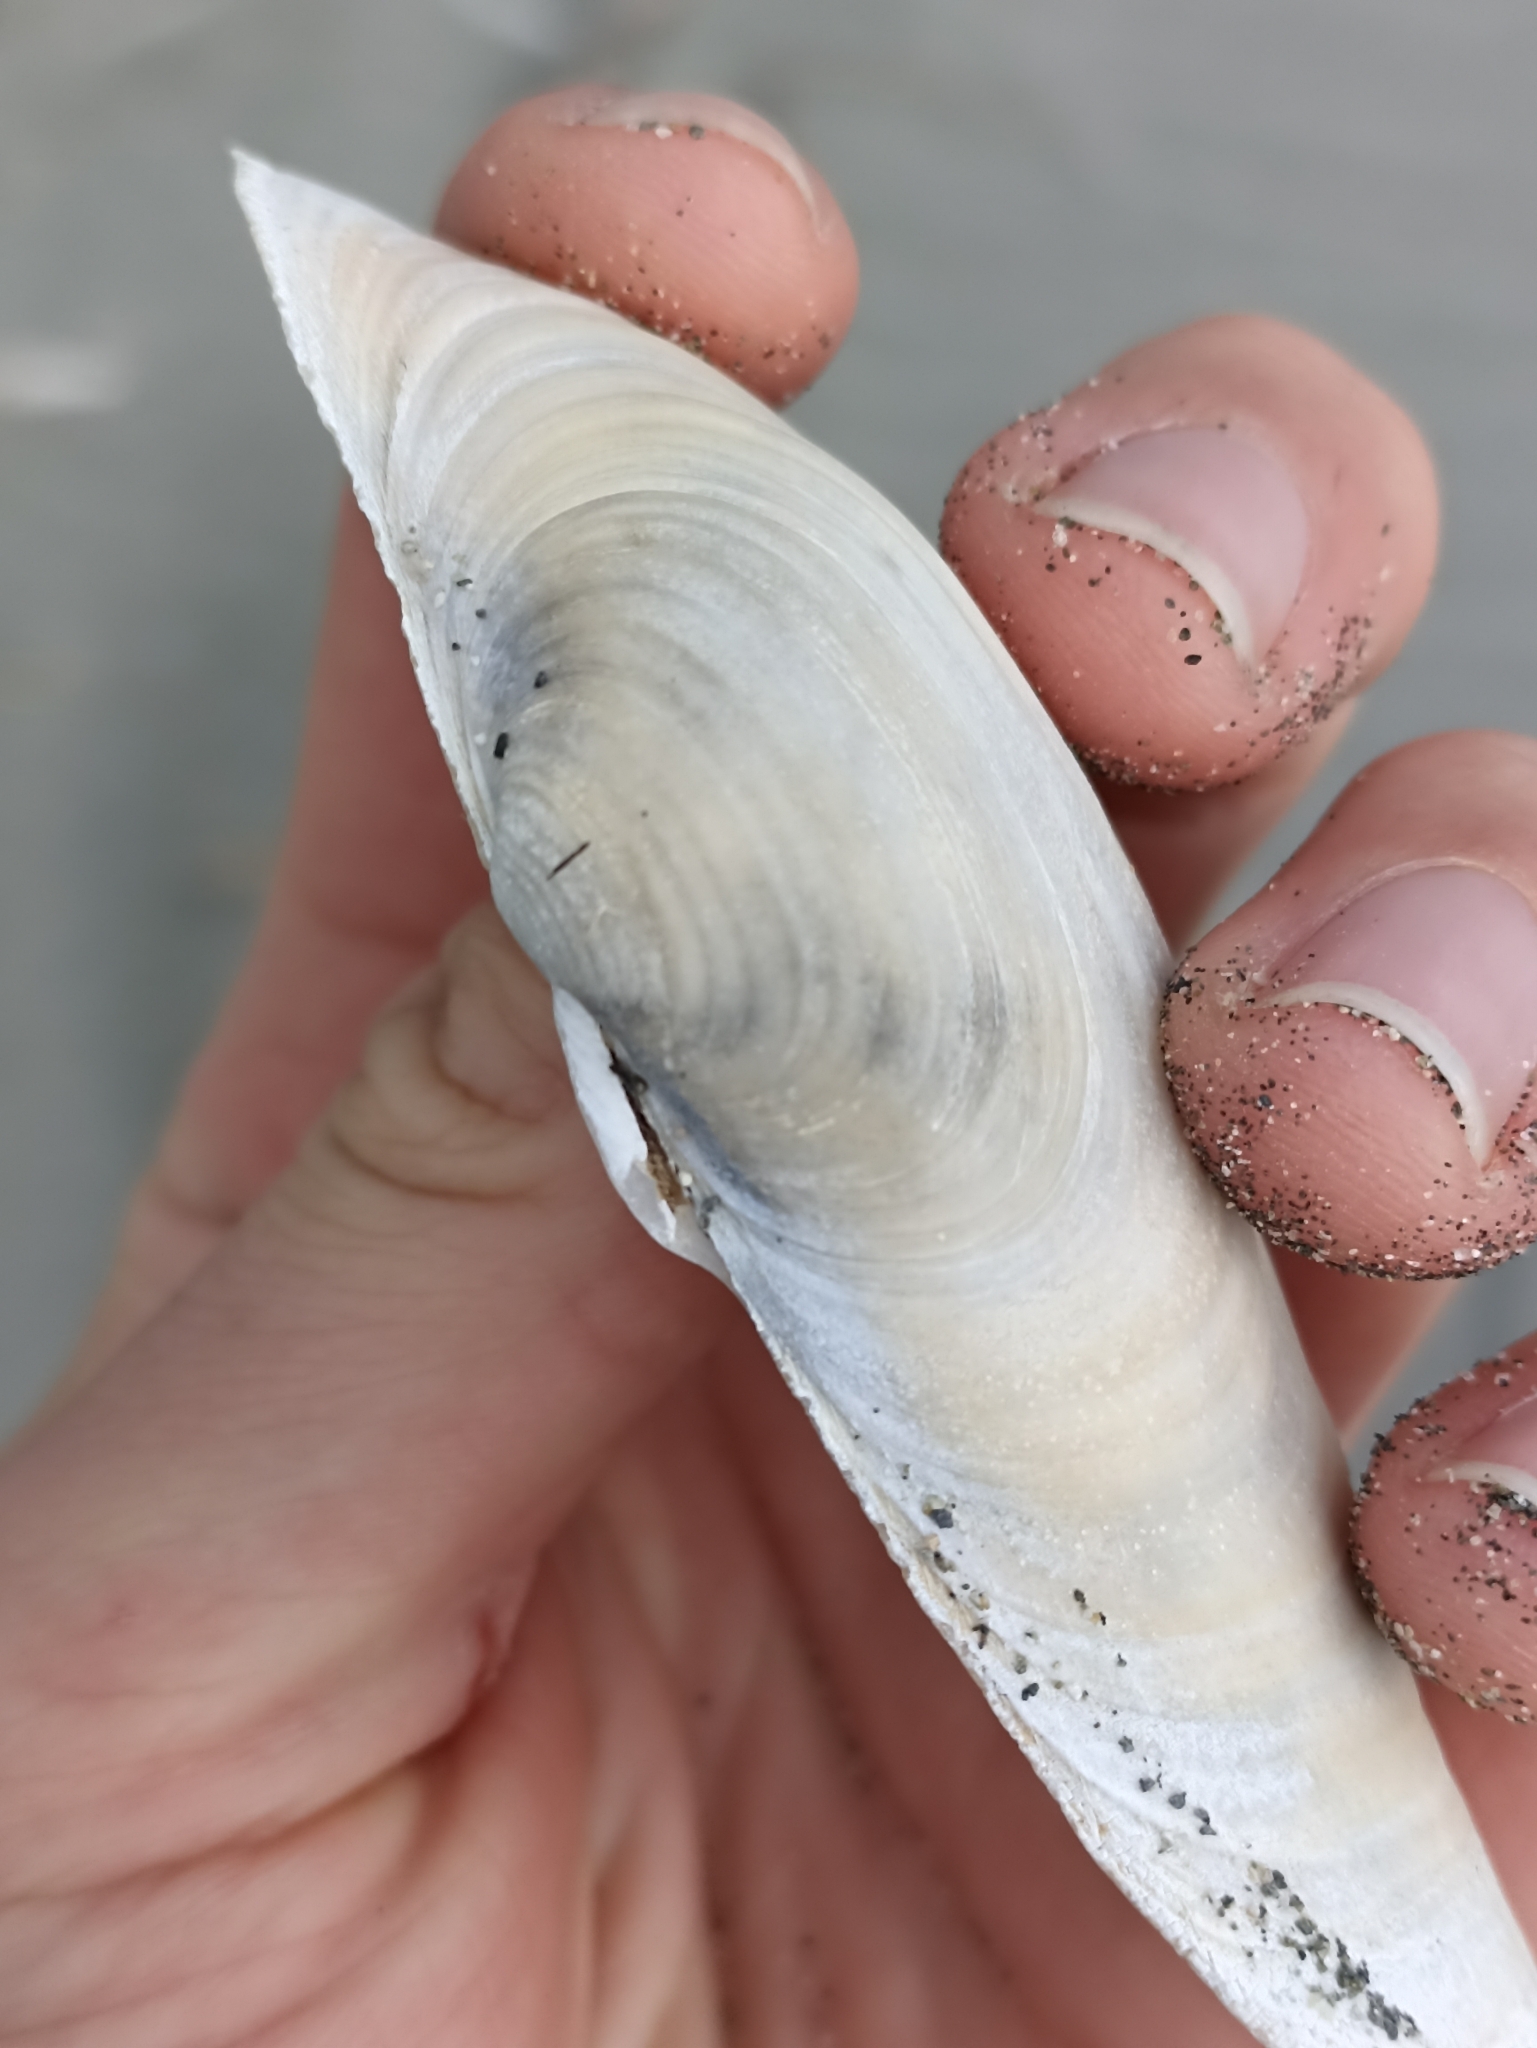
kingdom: Animalia
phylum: Mollusca
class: Bivalvia
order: Adapedonta
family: Hiatellidae
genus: Panopea
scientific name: Panopea zelandica
